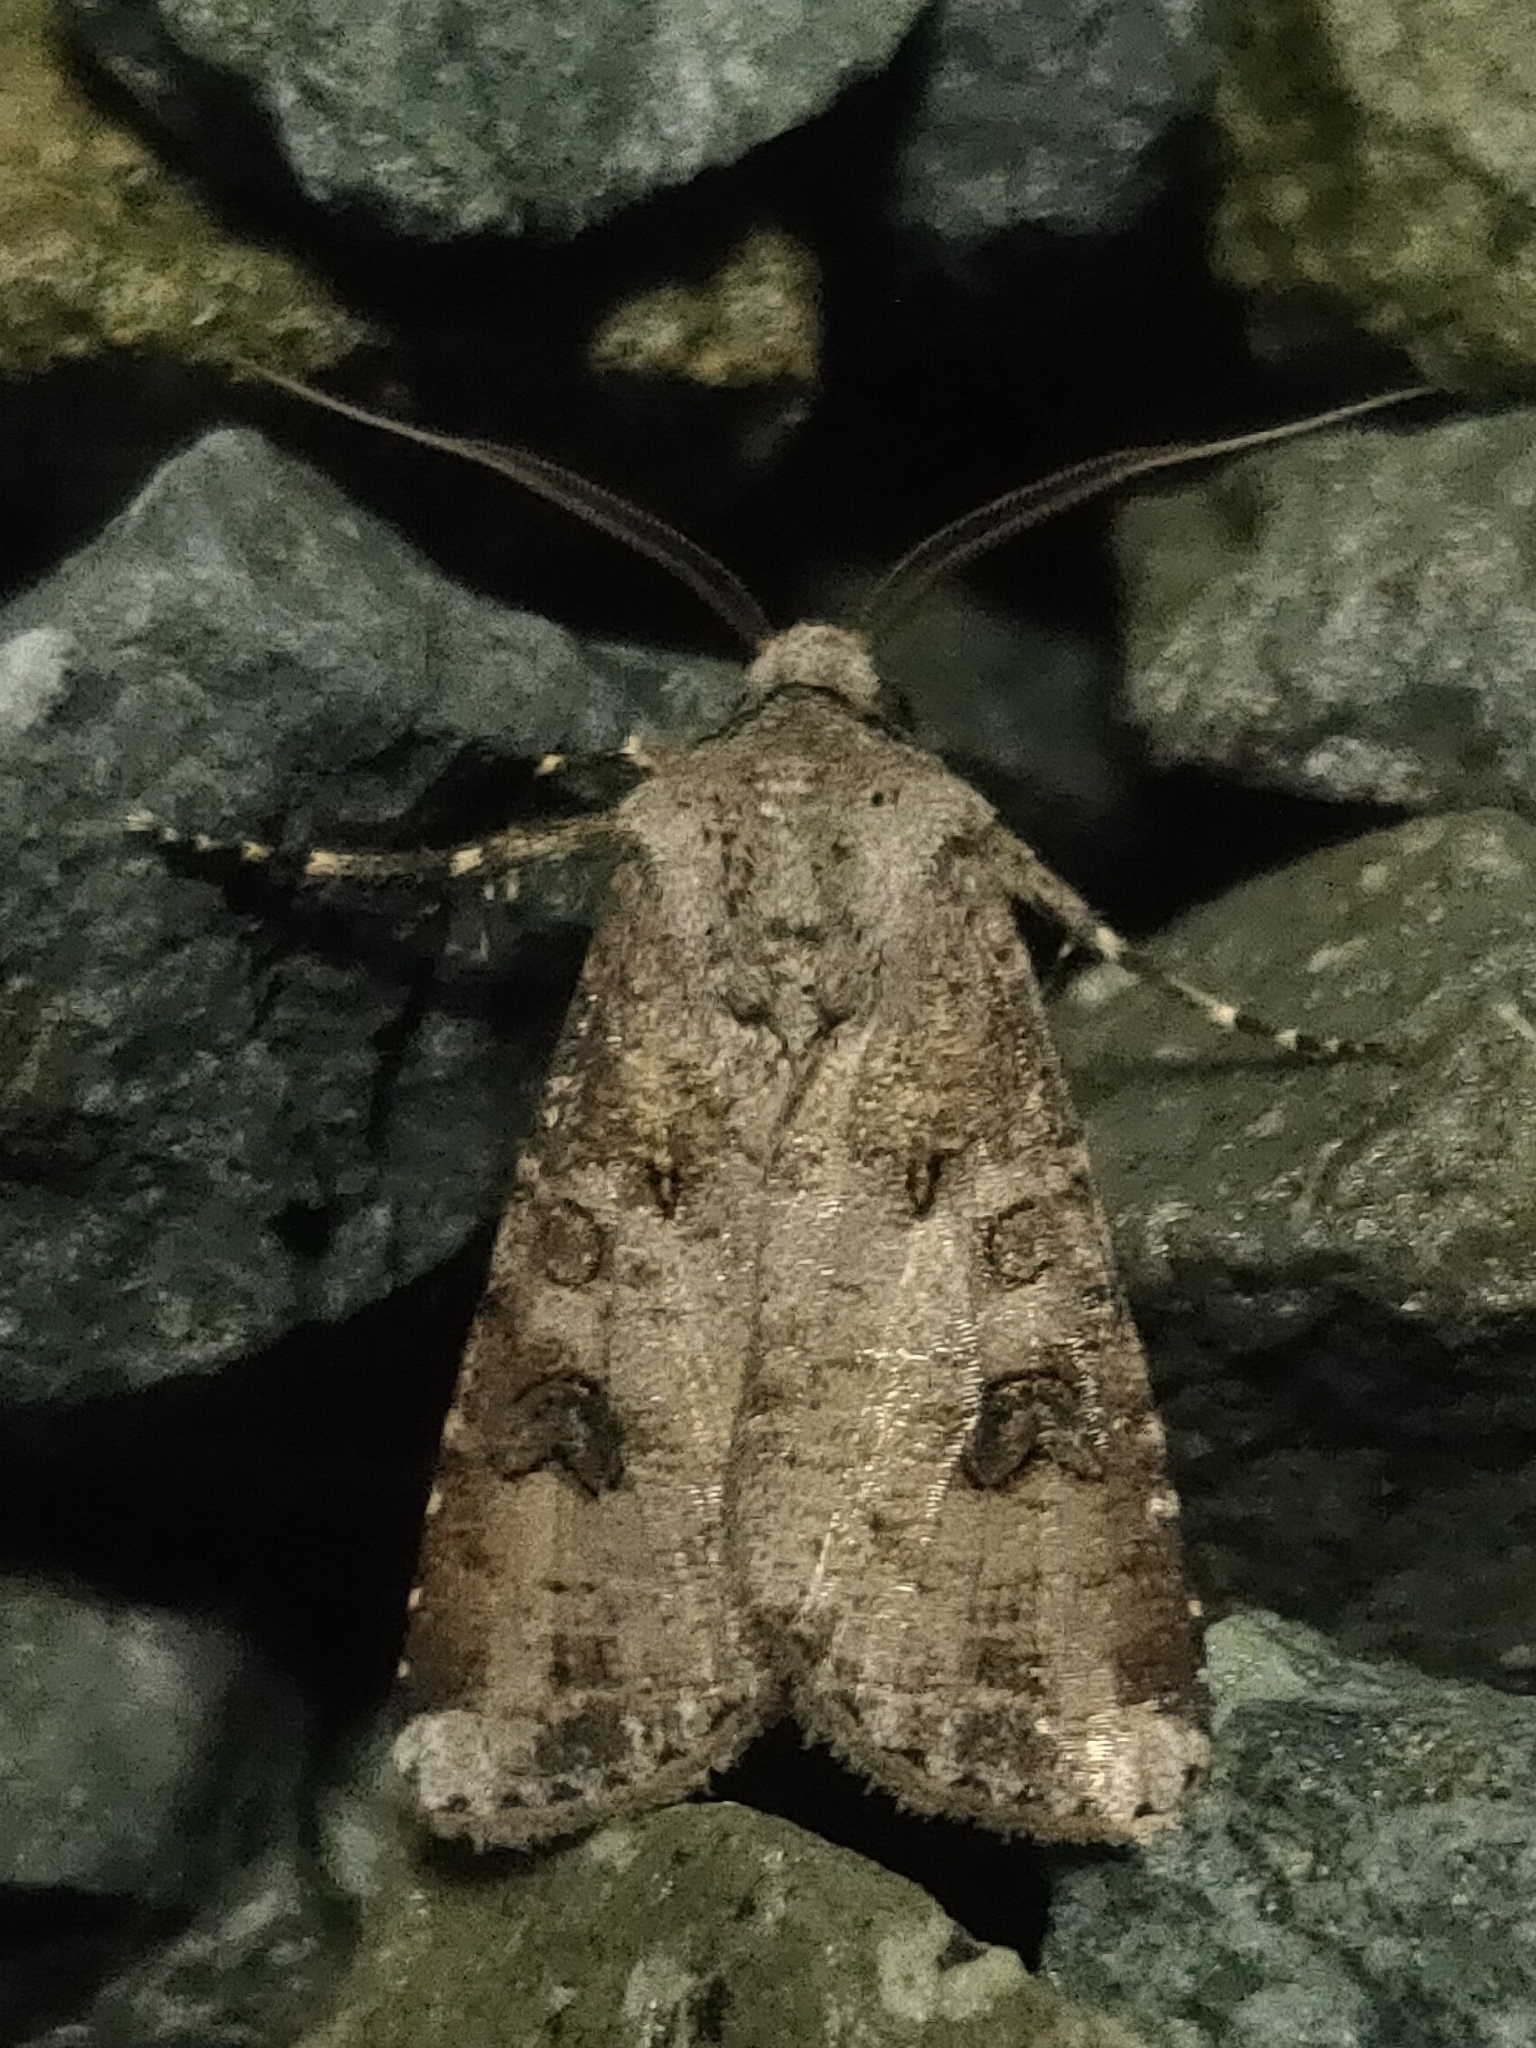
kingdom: Animalia
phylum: Arthropoda
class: Insecta
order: Lepidoptera
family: Noctuidae
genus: Agrotis
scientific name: Agrotis segetum
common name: Turnip moth
